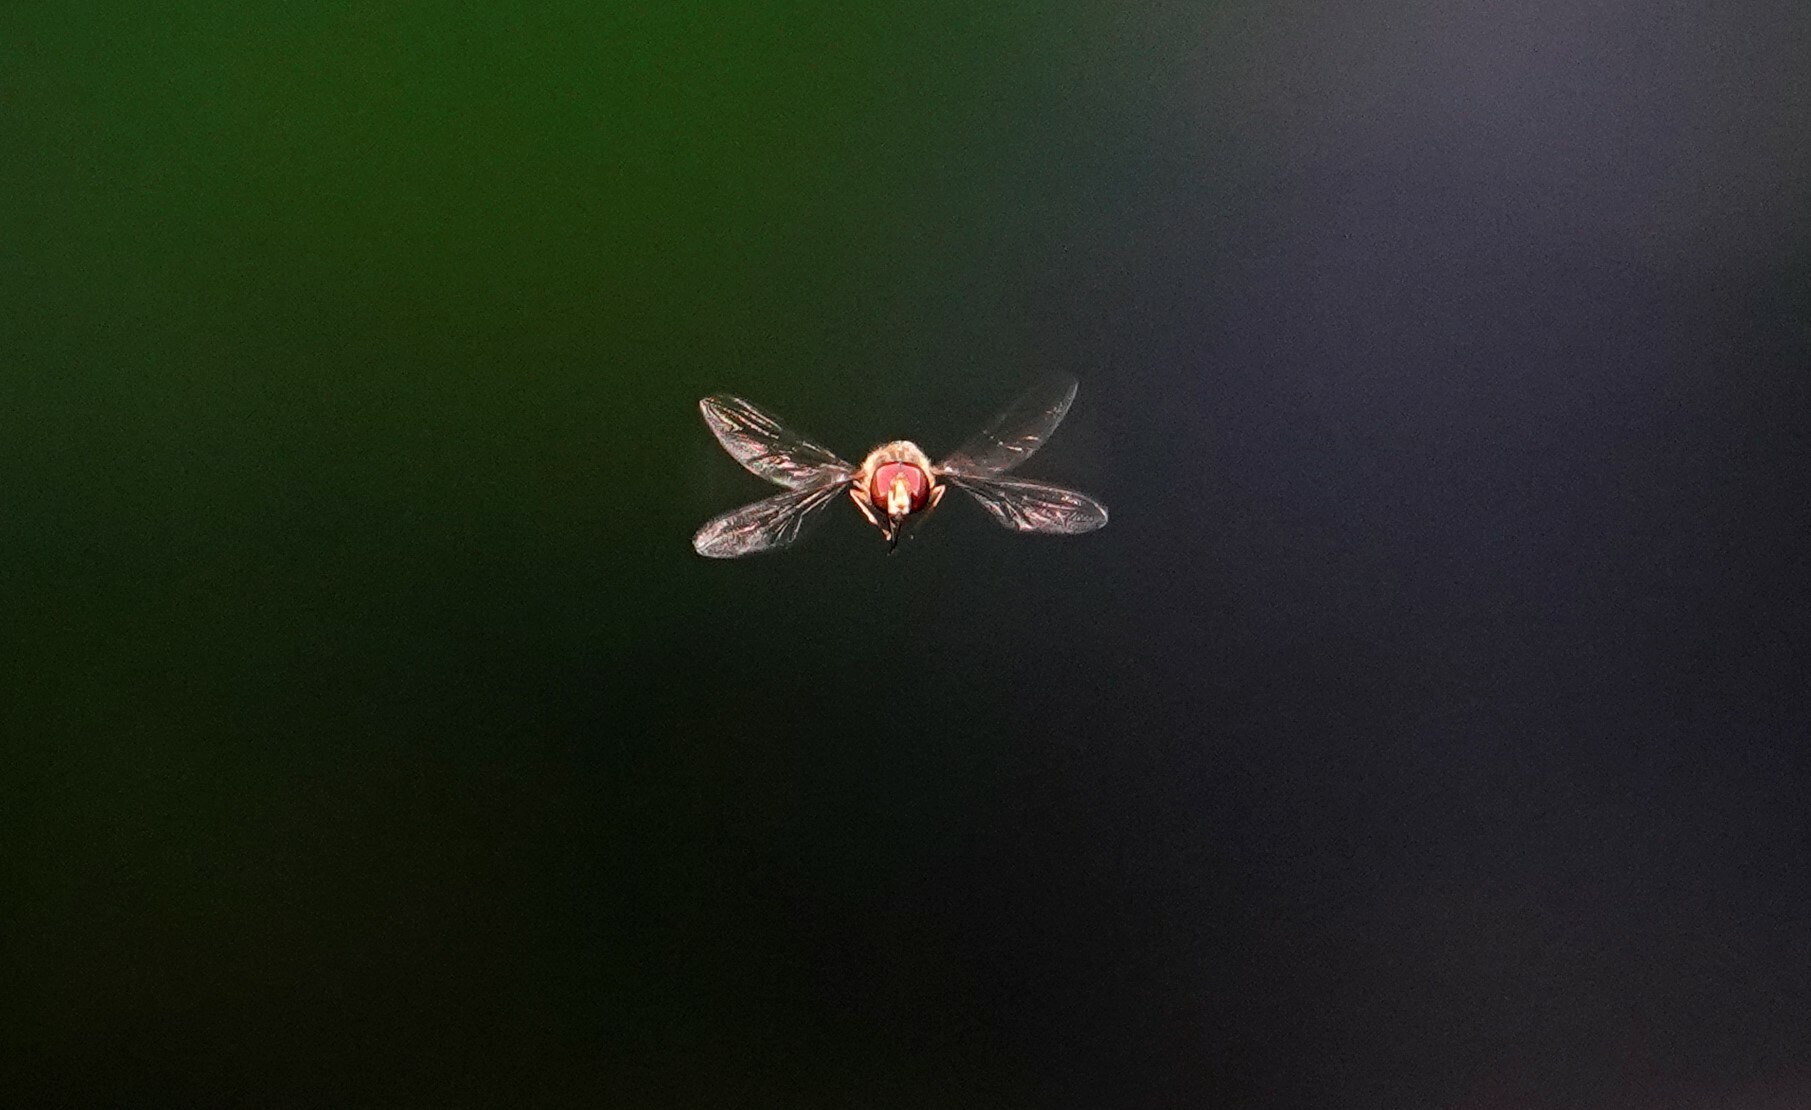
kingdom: Animalia
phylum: Arthropoda
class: Insecta
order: Diptera
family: Syrphidae
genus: Episyrphus
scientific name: Episyrphus balteatus
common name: Marmalade hoverfly
